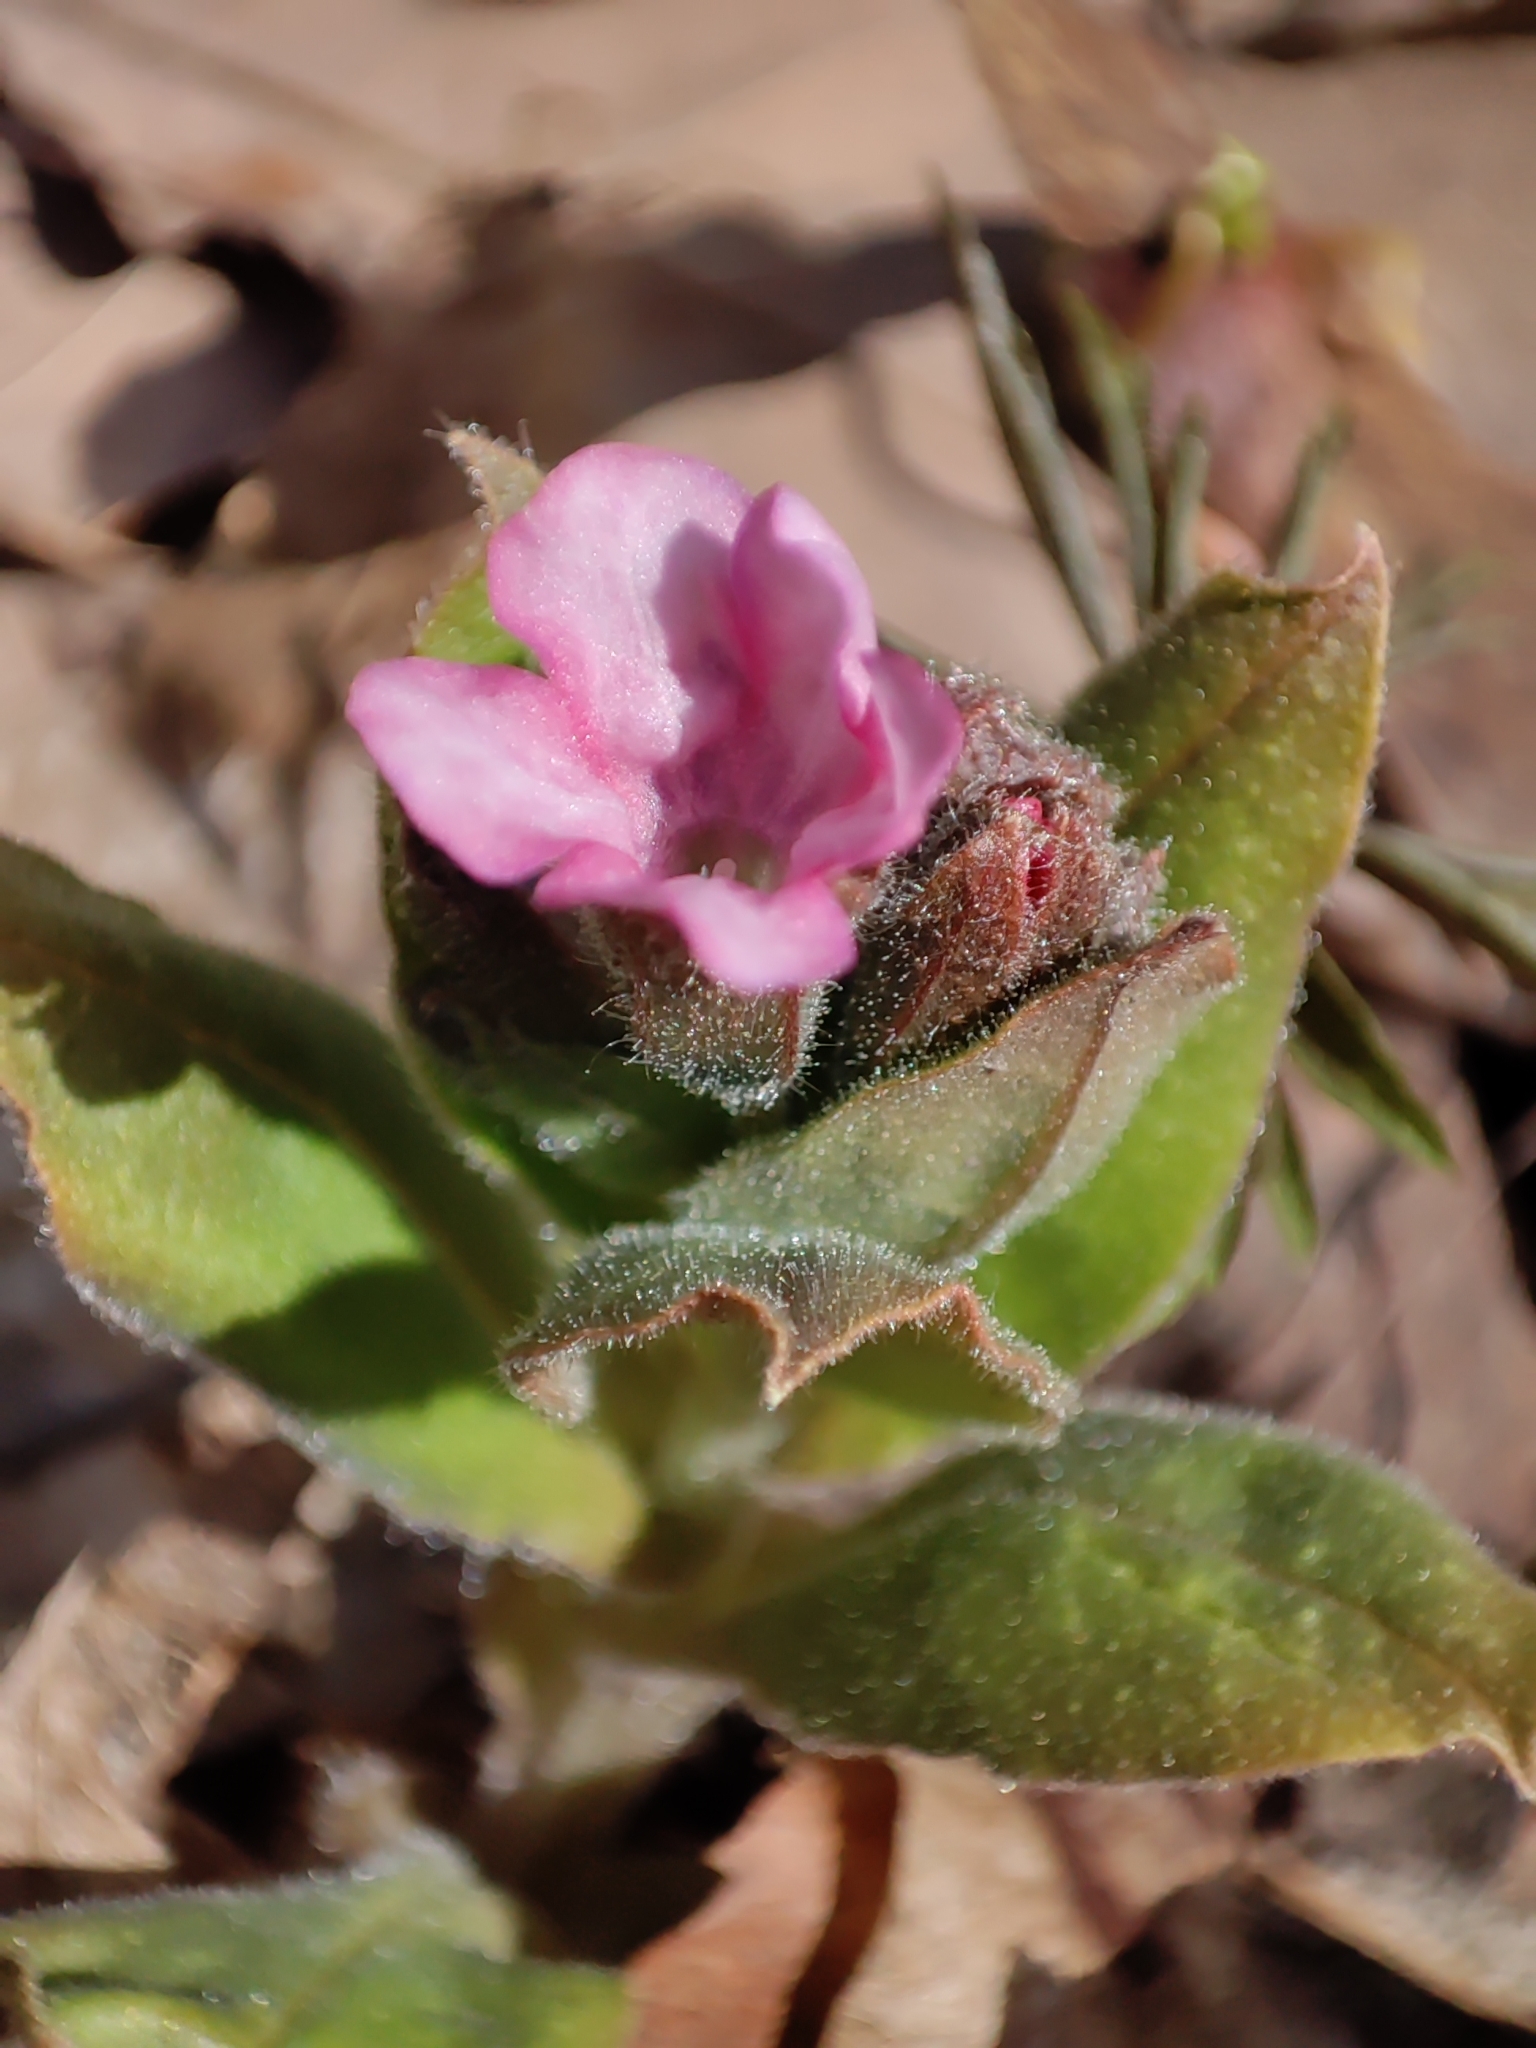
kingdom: Plantae
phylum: Tracheophyta
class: Magnoliopsida
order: Boraginales
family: Boraginaceae
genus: Pulmonaria
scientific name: Pulmonaria obscura
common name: Suffolk lungwort
